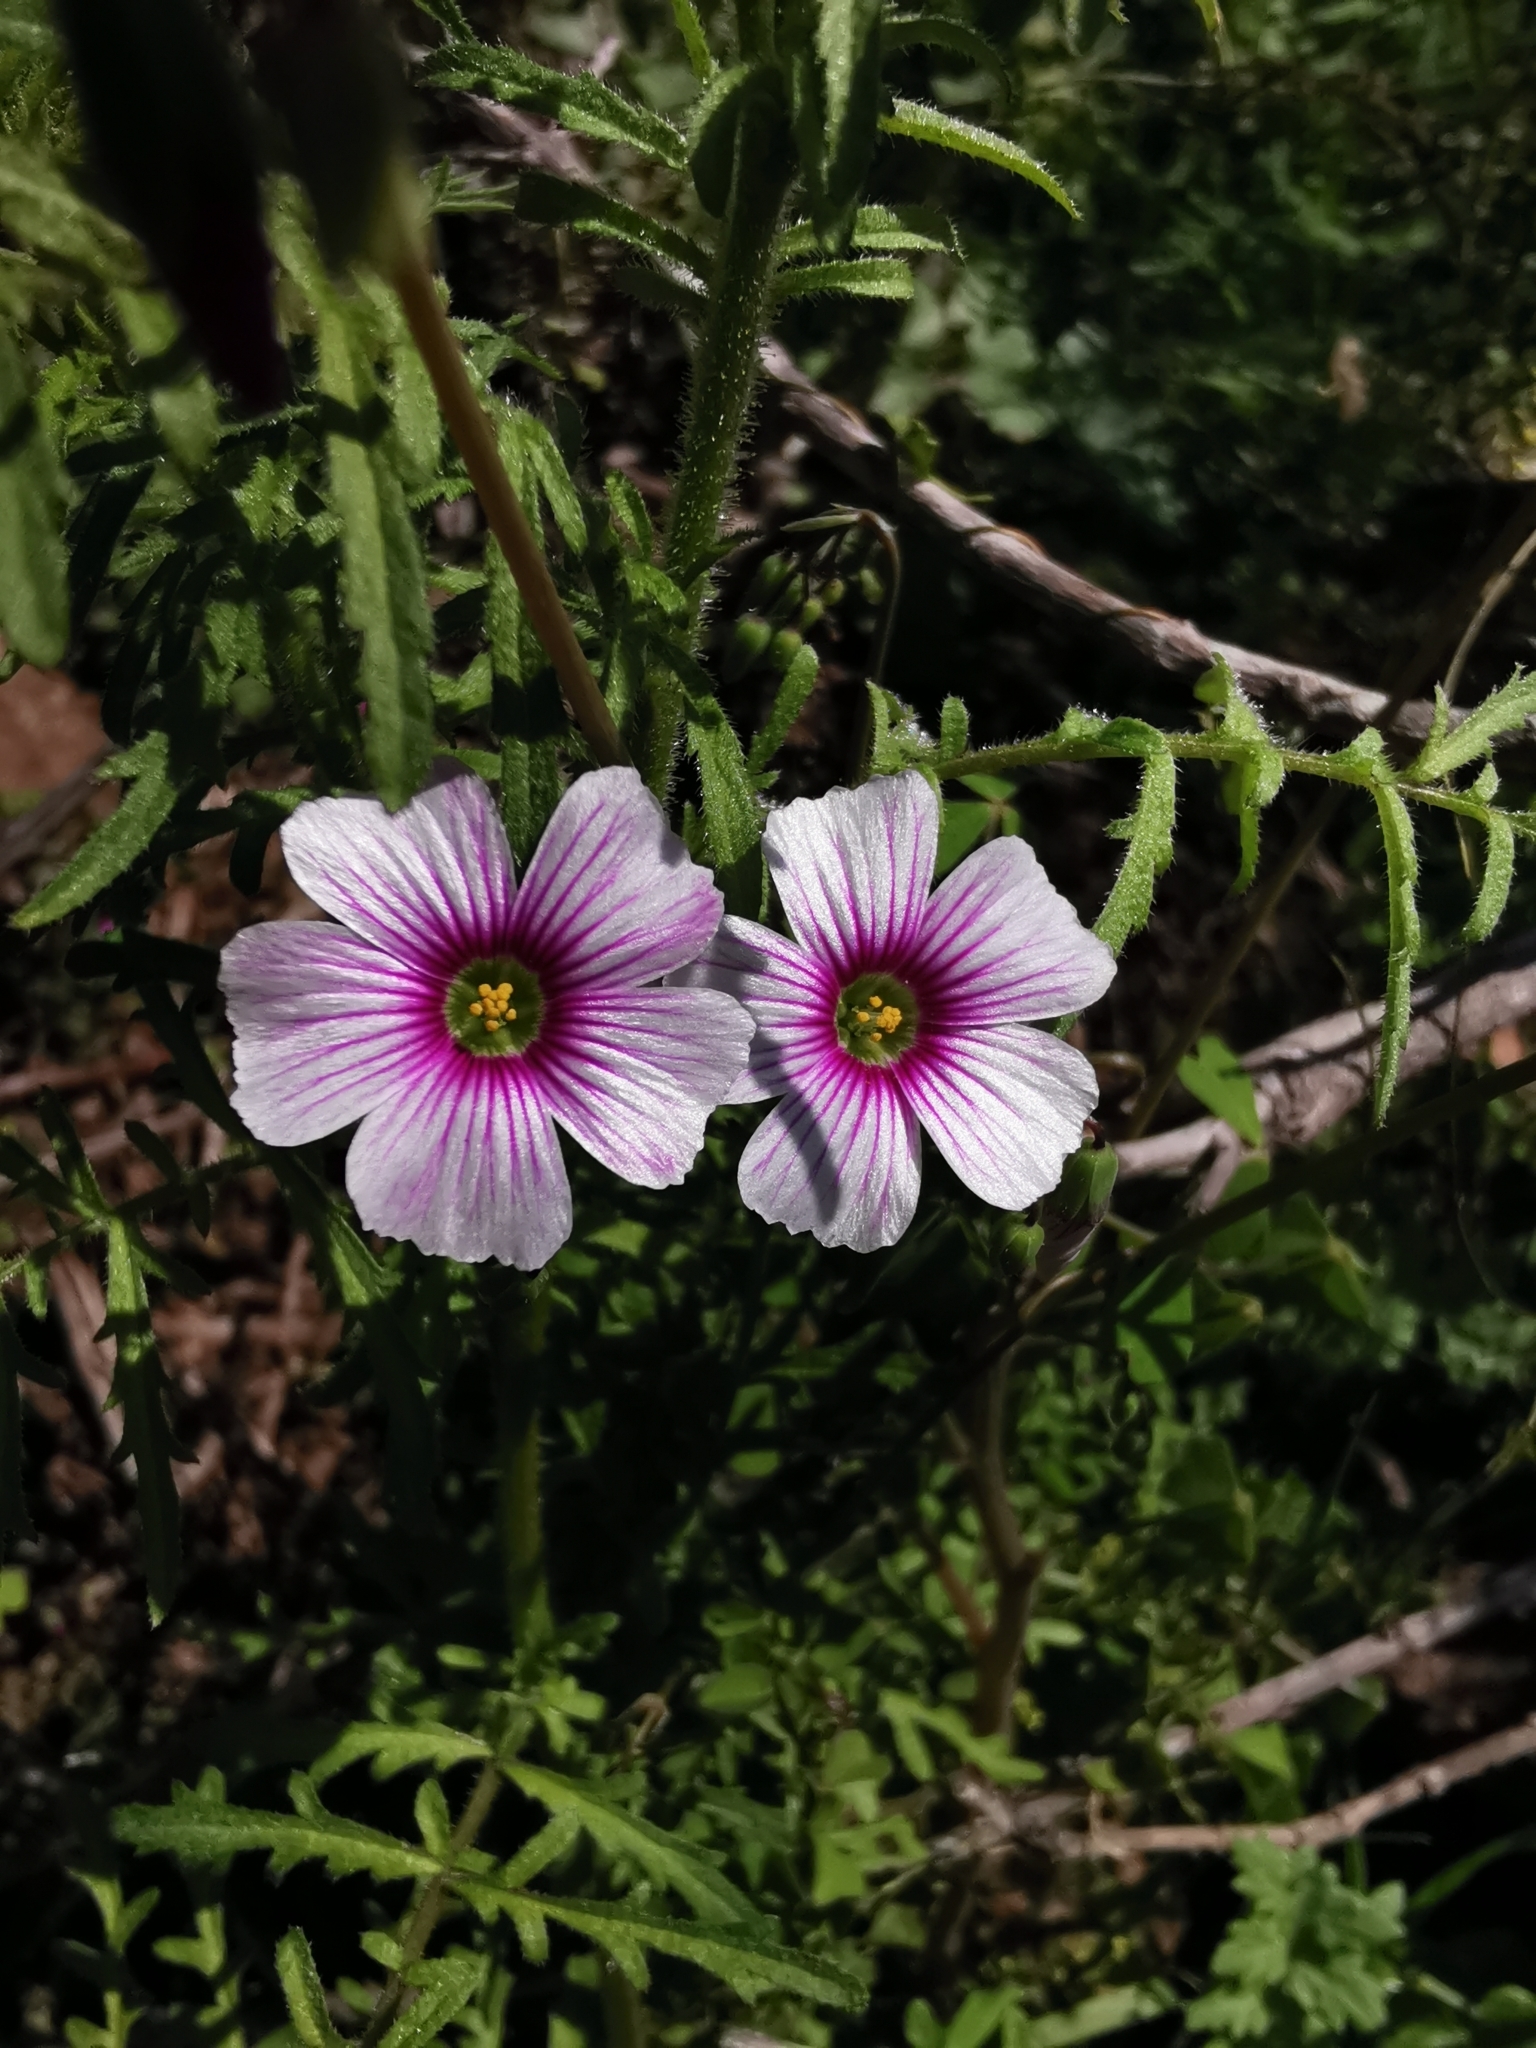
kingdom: Plantae
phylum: Tracheophyta
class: Magnoliopsida
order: Oxalidales
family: Oxalidaceae
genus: Oxalis
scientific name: Oxalis rosea
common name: Annual pink-sorrel
